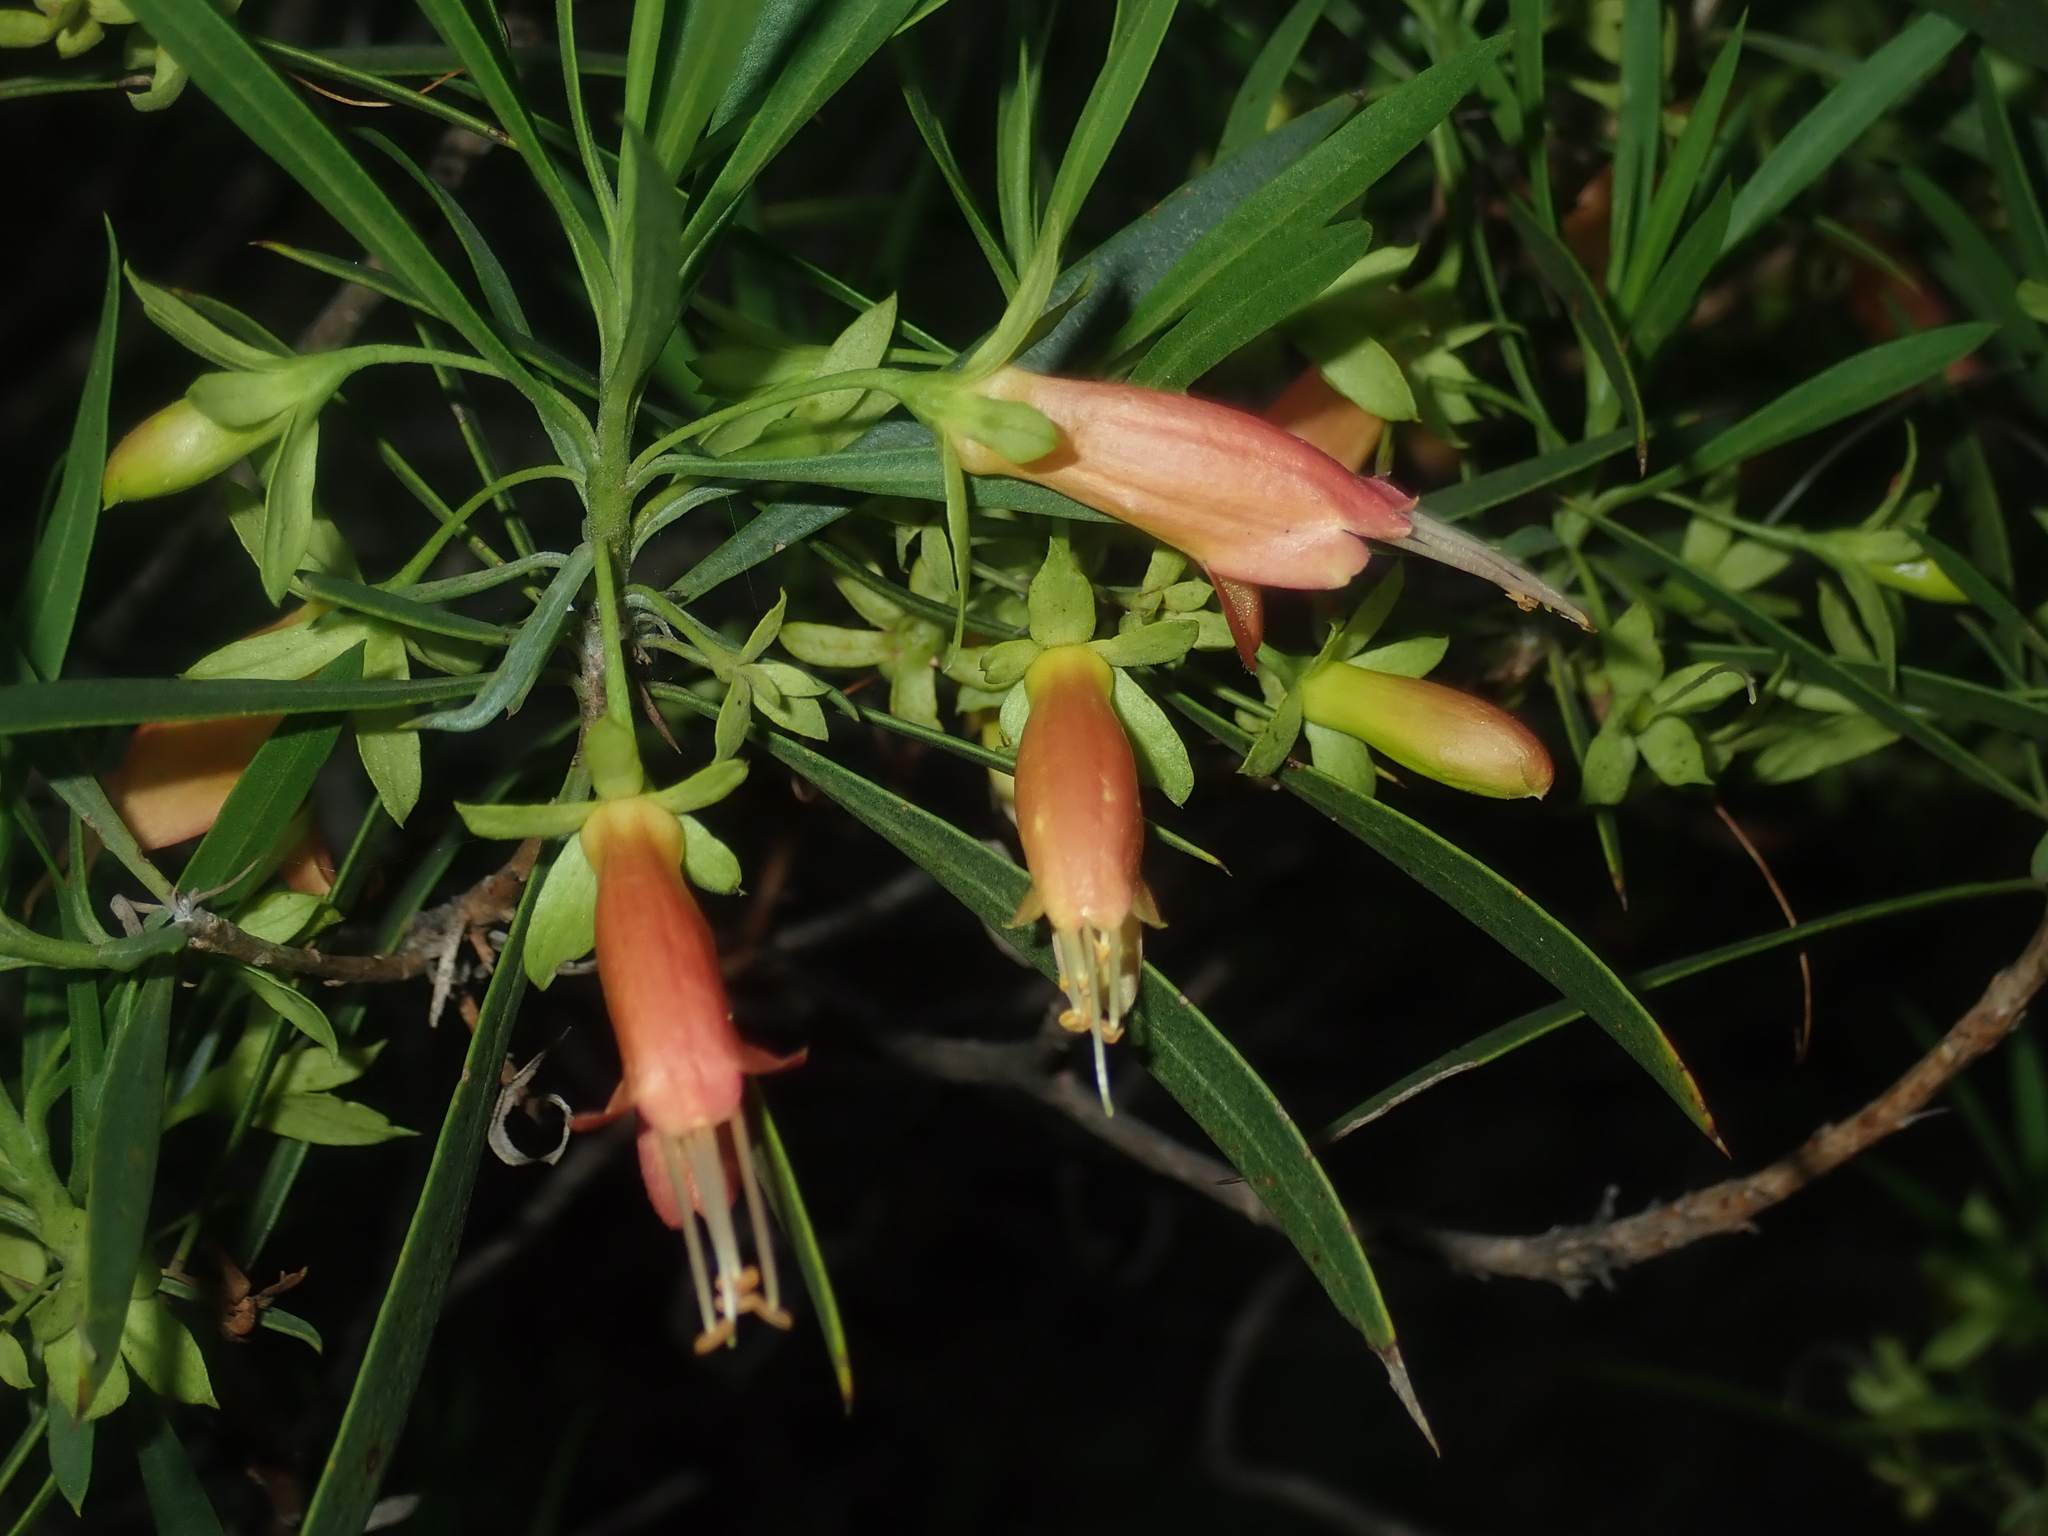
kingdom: Plantae
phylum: Tracheophyta
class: Magnoliopsida
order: Lamiales
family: Scrophulariaceae
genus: Eremophila
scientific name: Eremophila oldfieldii
